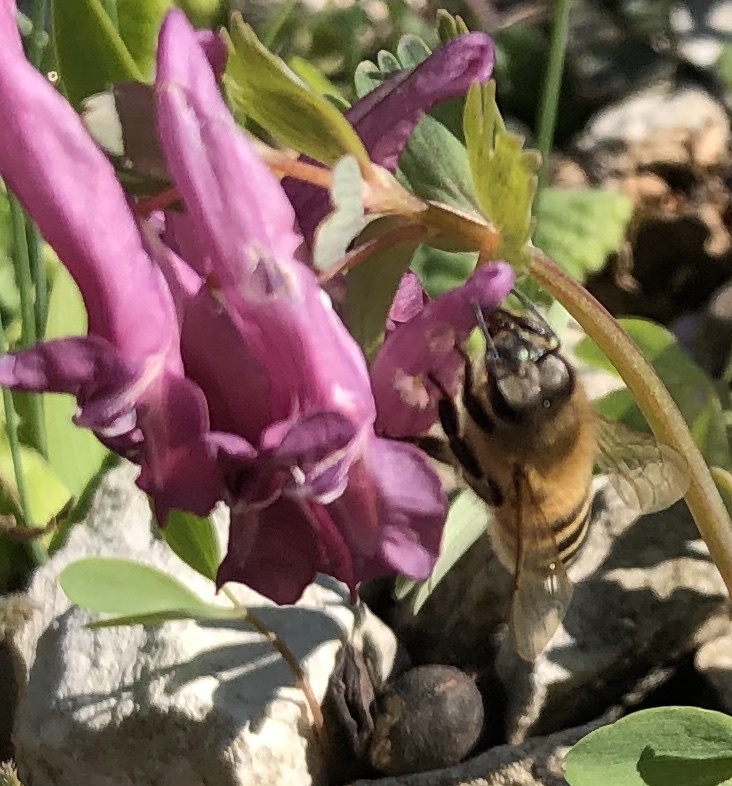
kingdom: Animalia
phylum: Arthropoda
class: Insecta
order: Hymenoptera
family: Apidae
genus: Apis
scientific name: Apis mellifera
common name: Honey bee
